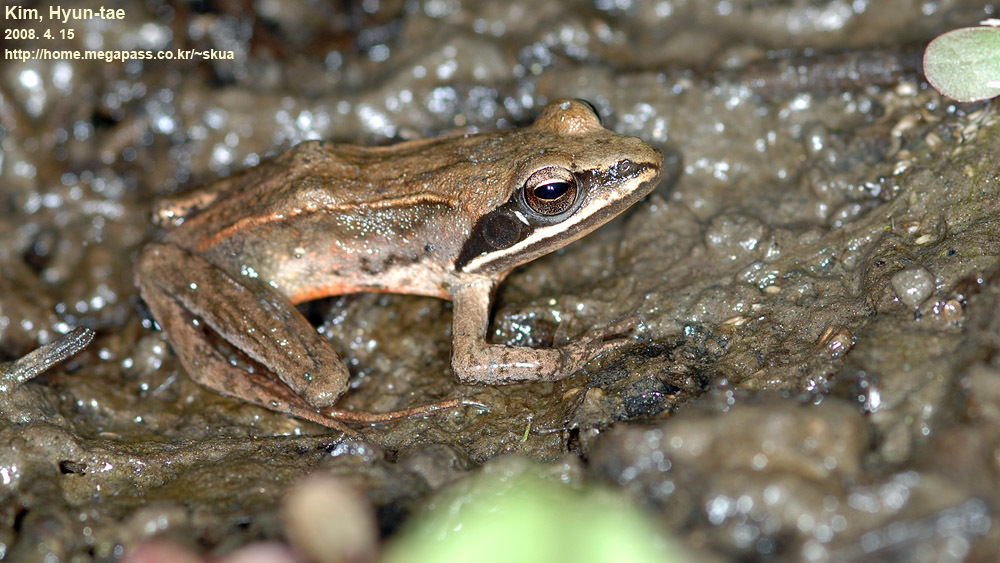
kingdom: Animalia
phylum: Chordata
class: Amphibia
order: Anura
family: Ranidae
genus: Rana
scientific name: Rana coreana
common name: Korean brown frog
